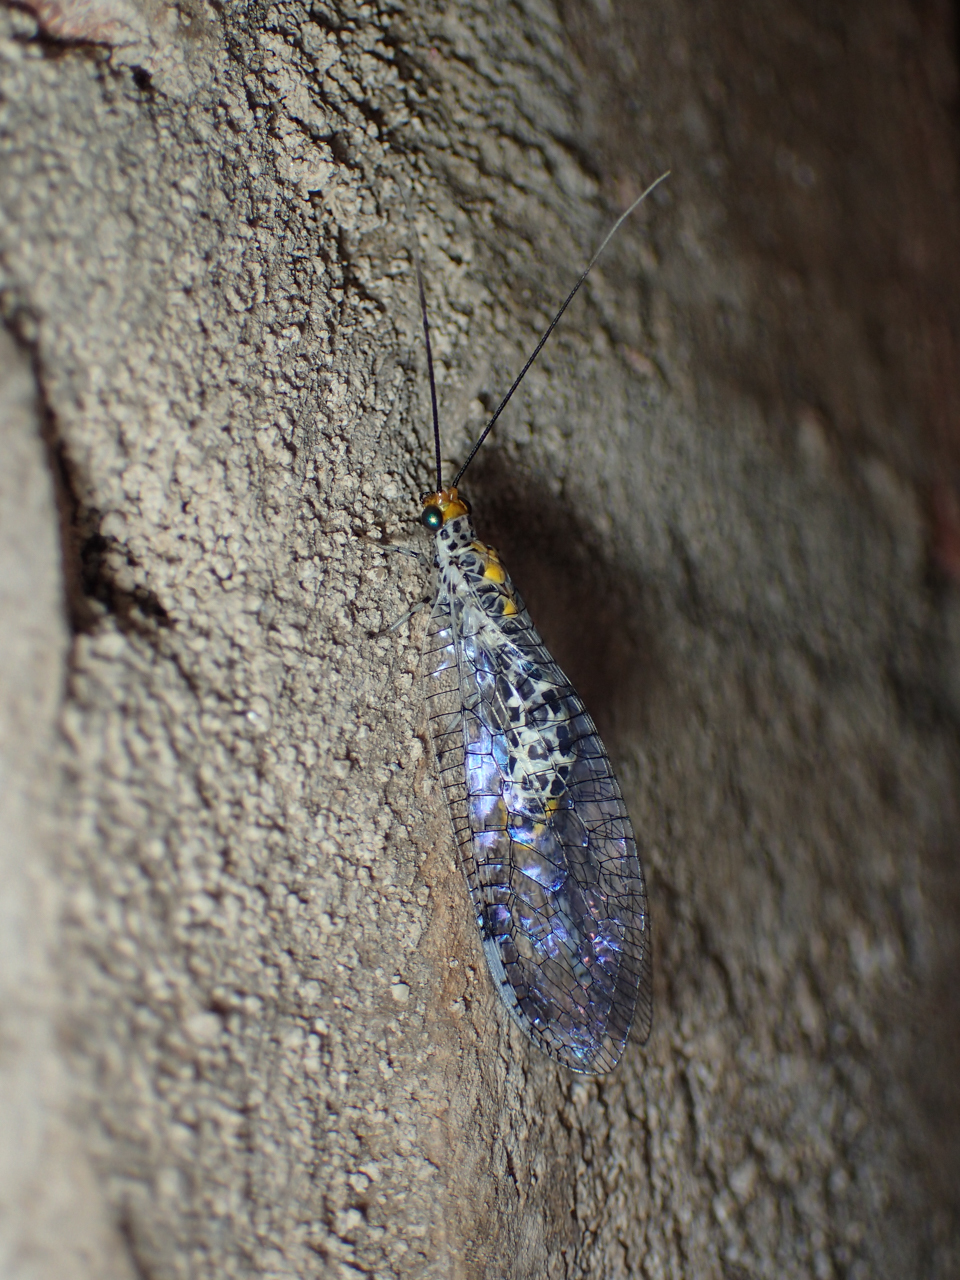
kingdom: Animalia
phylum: Arthropoda
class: Insecta
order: Neuroptera
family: Chrysopidae
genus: Abachrysa
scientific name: Abachrysa eureka
